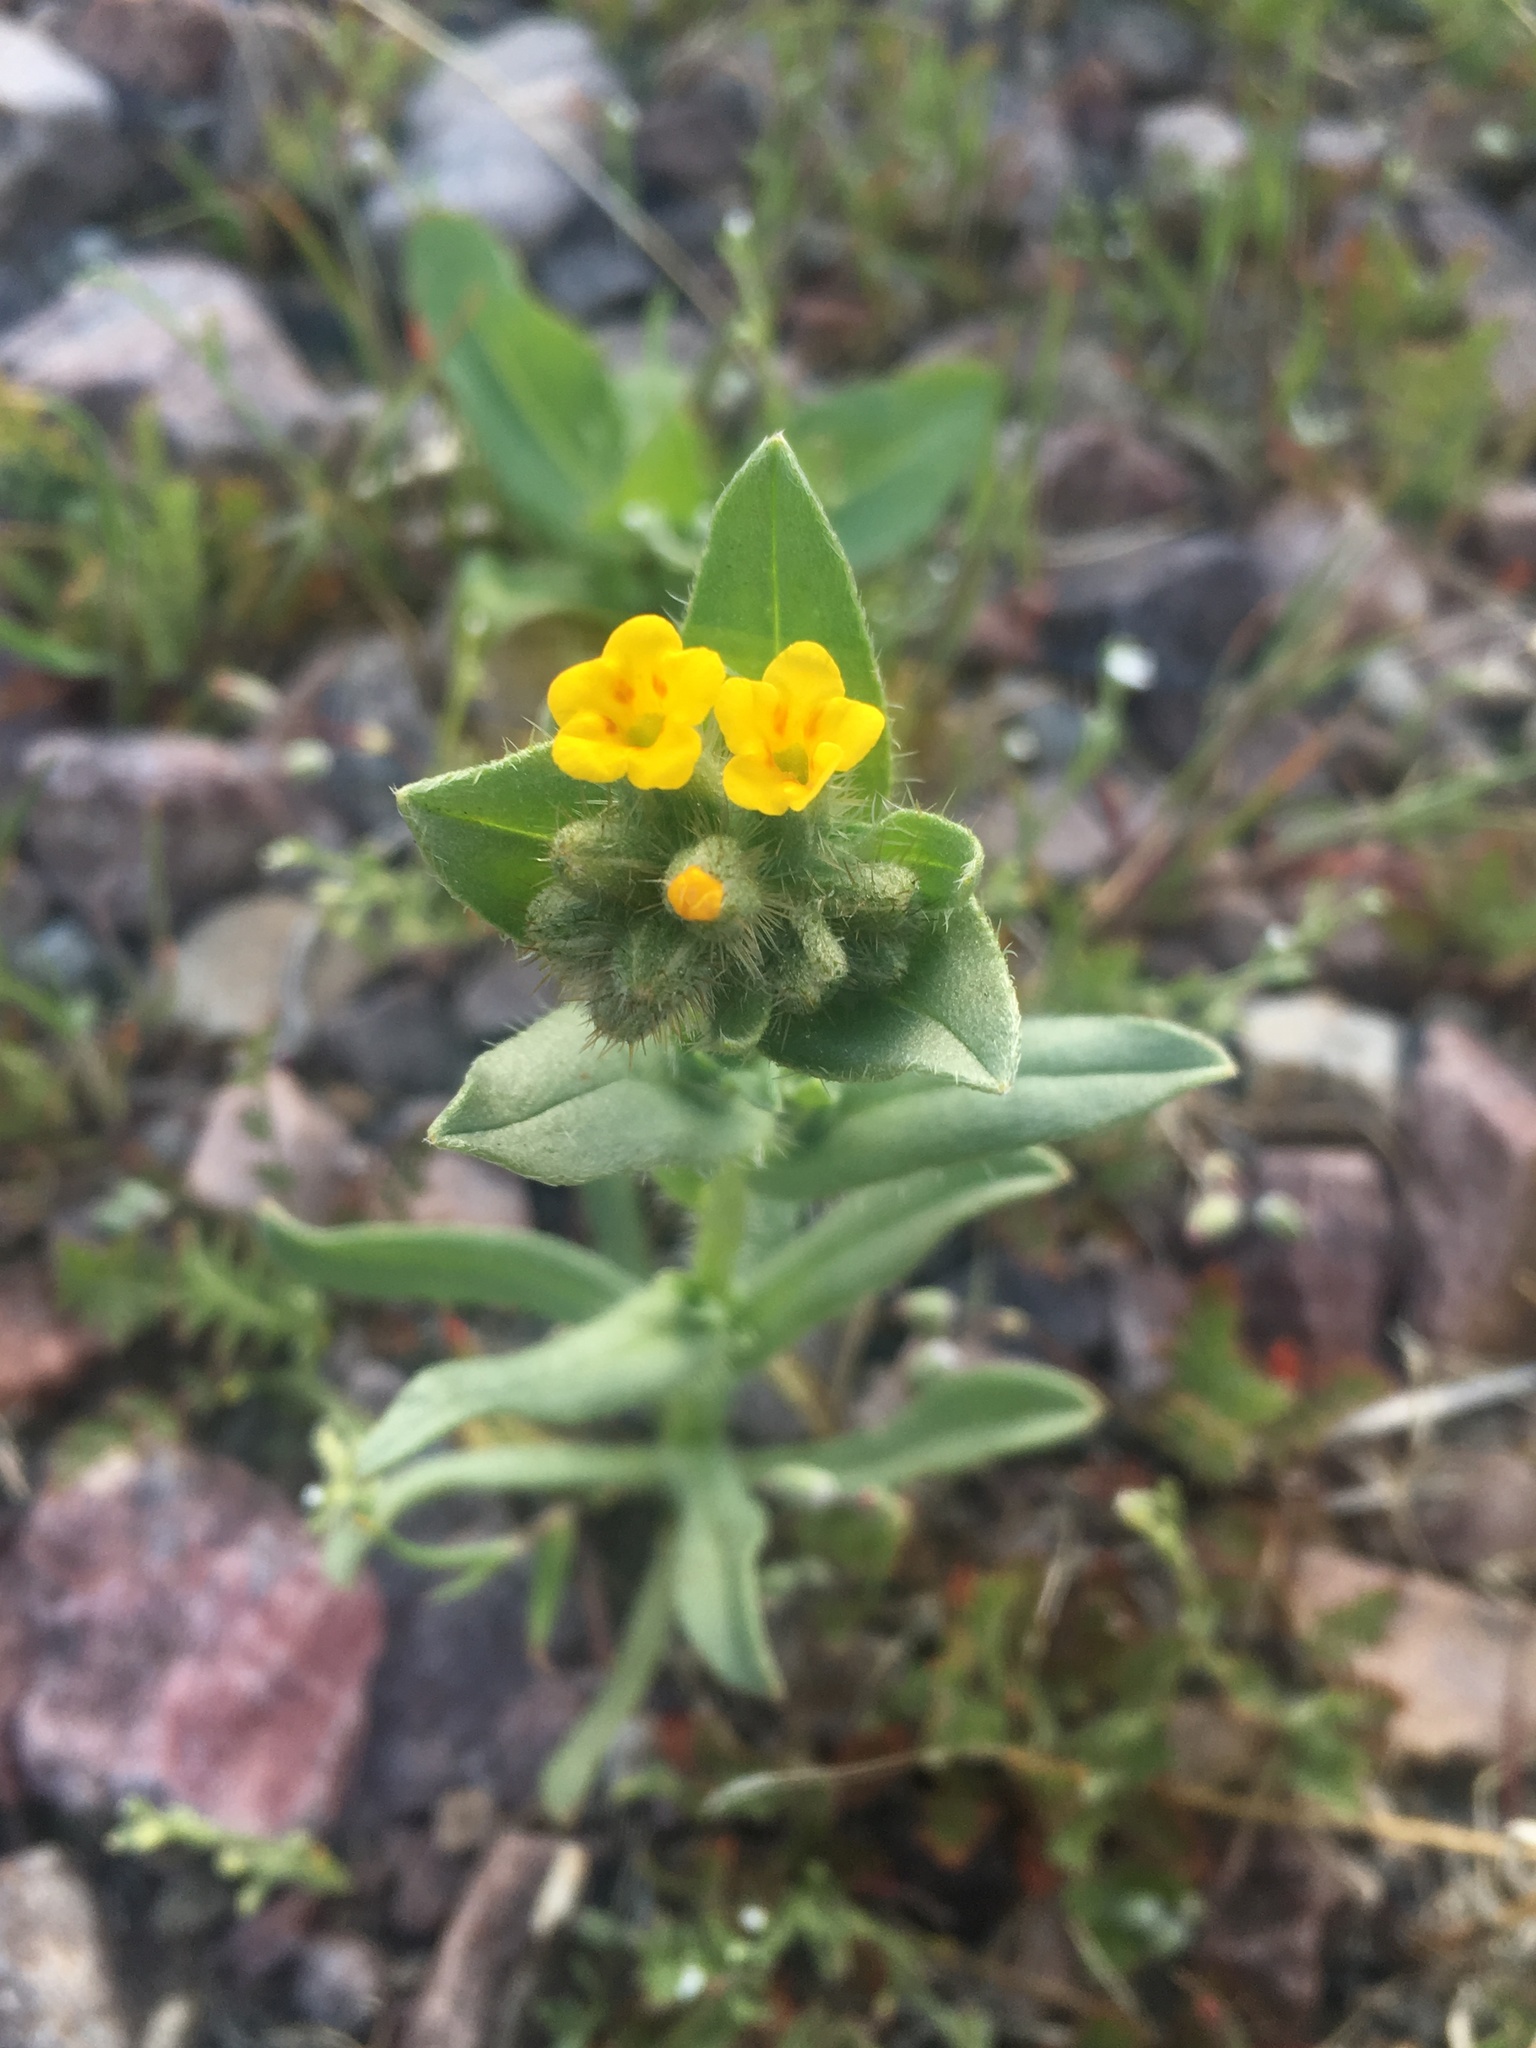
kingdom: Plantae
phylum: Tracheophyta
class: Magnoliopsida
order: Boraginales
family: Boraginaceae
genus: Amsinckia
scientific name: Amsinckia tessellata
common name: Tessellate fiddleneck
